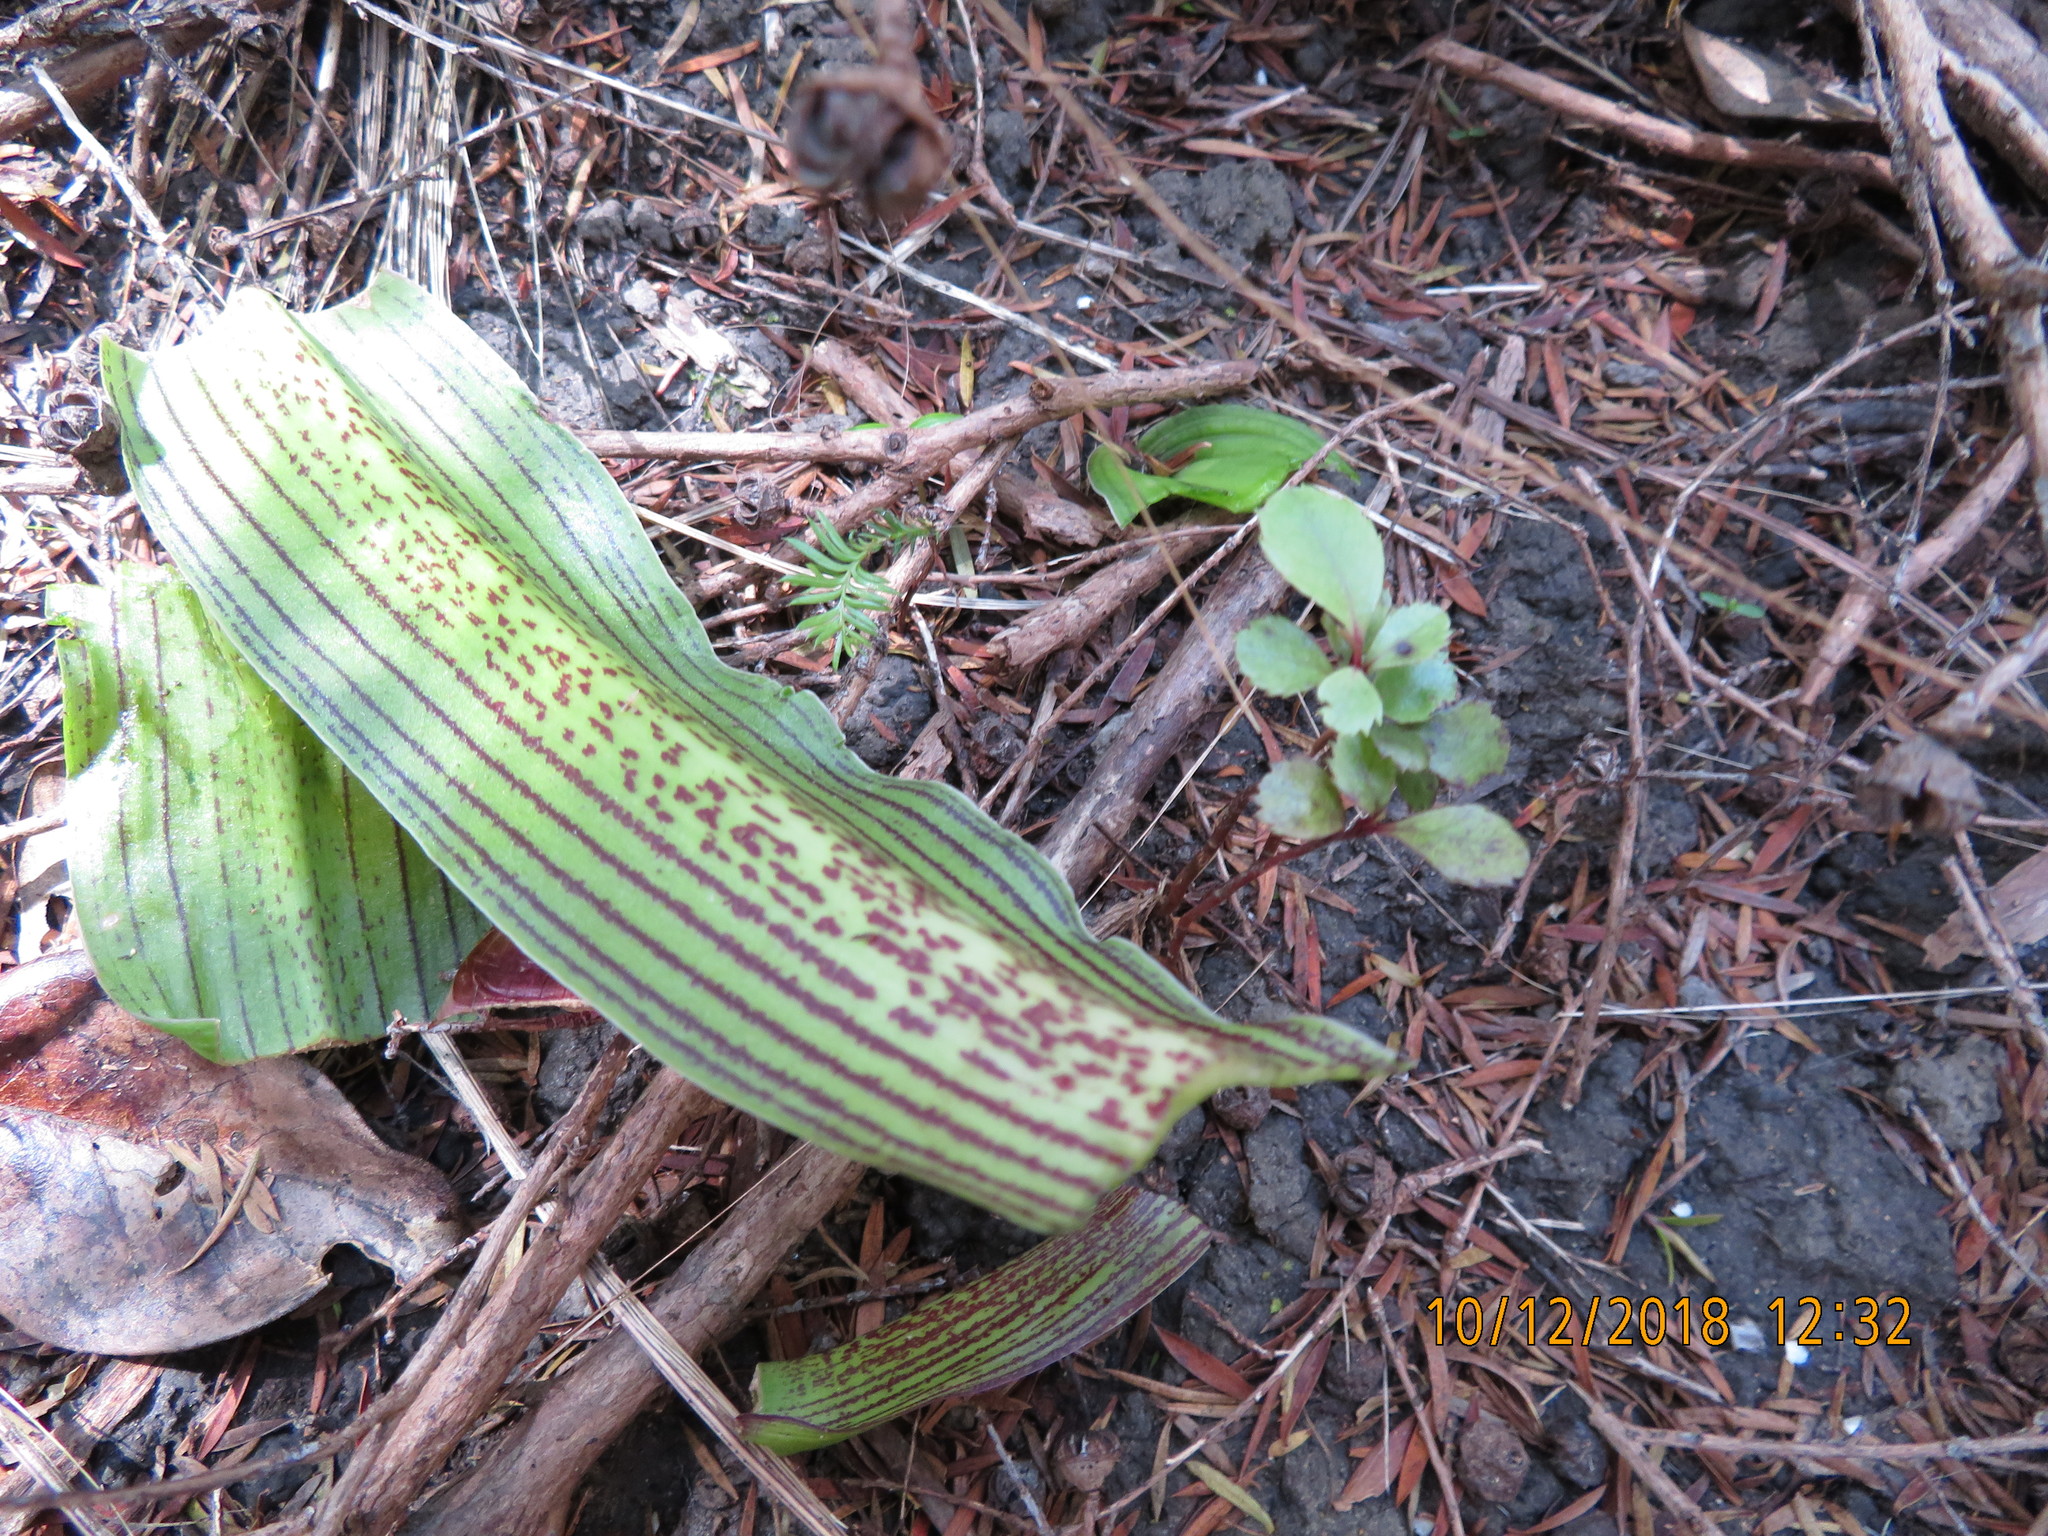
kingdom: Plantae
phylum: Tracheophyta
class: Pinopsida
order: Pinales
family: Podocarpaceae
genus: Dacrycarpus
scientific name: Dacrycarpus dacrydioides
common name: White pine
